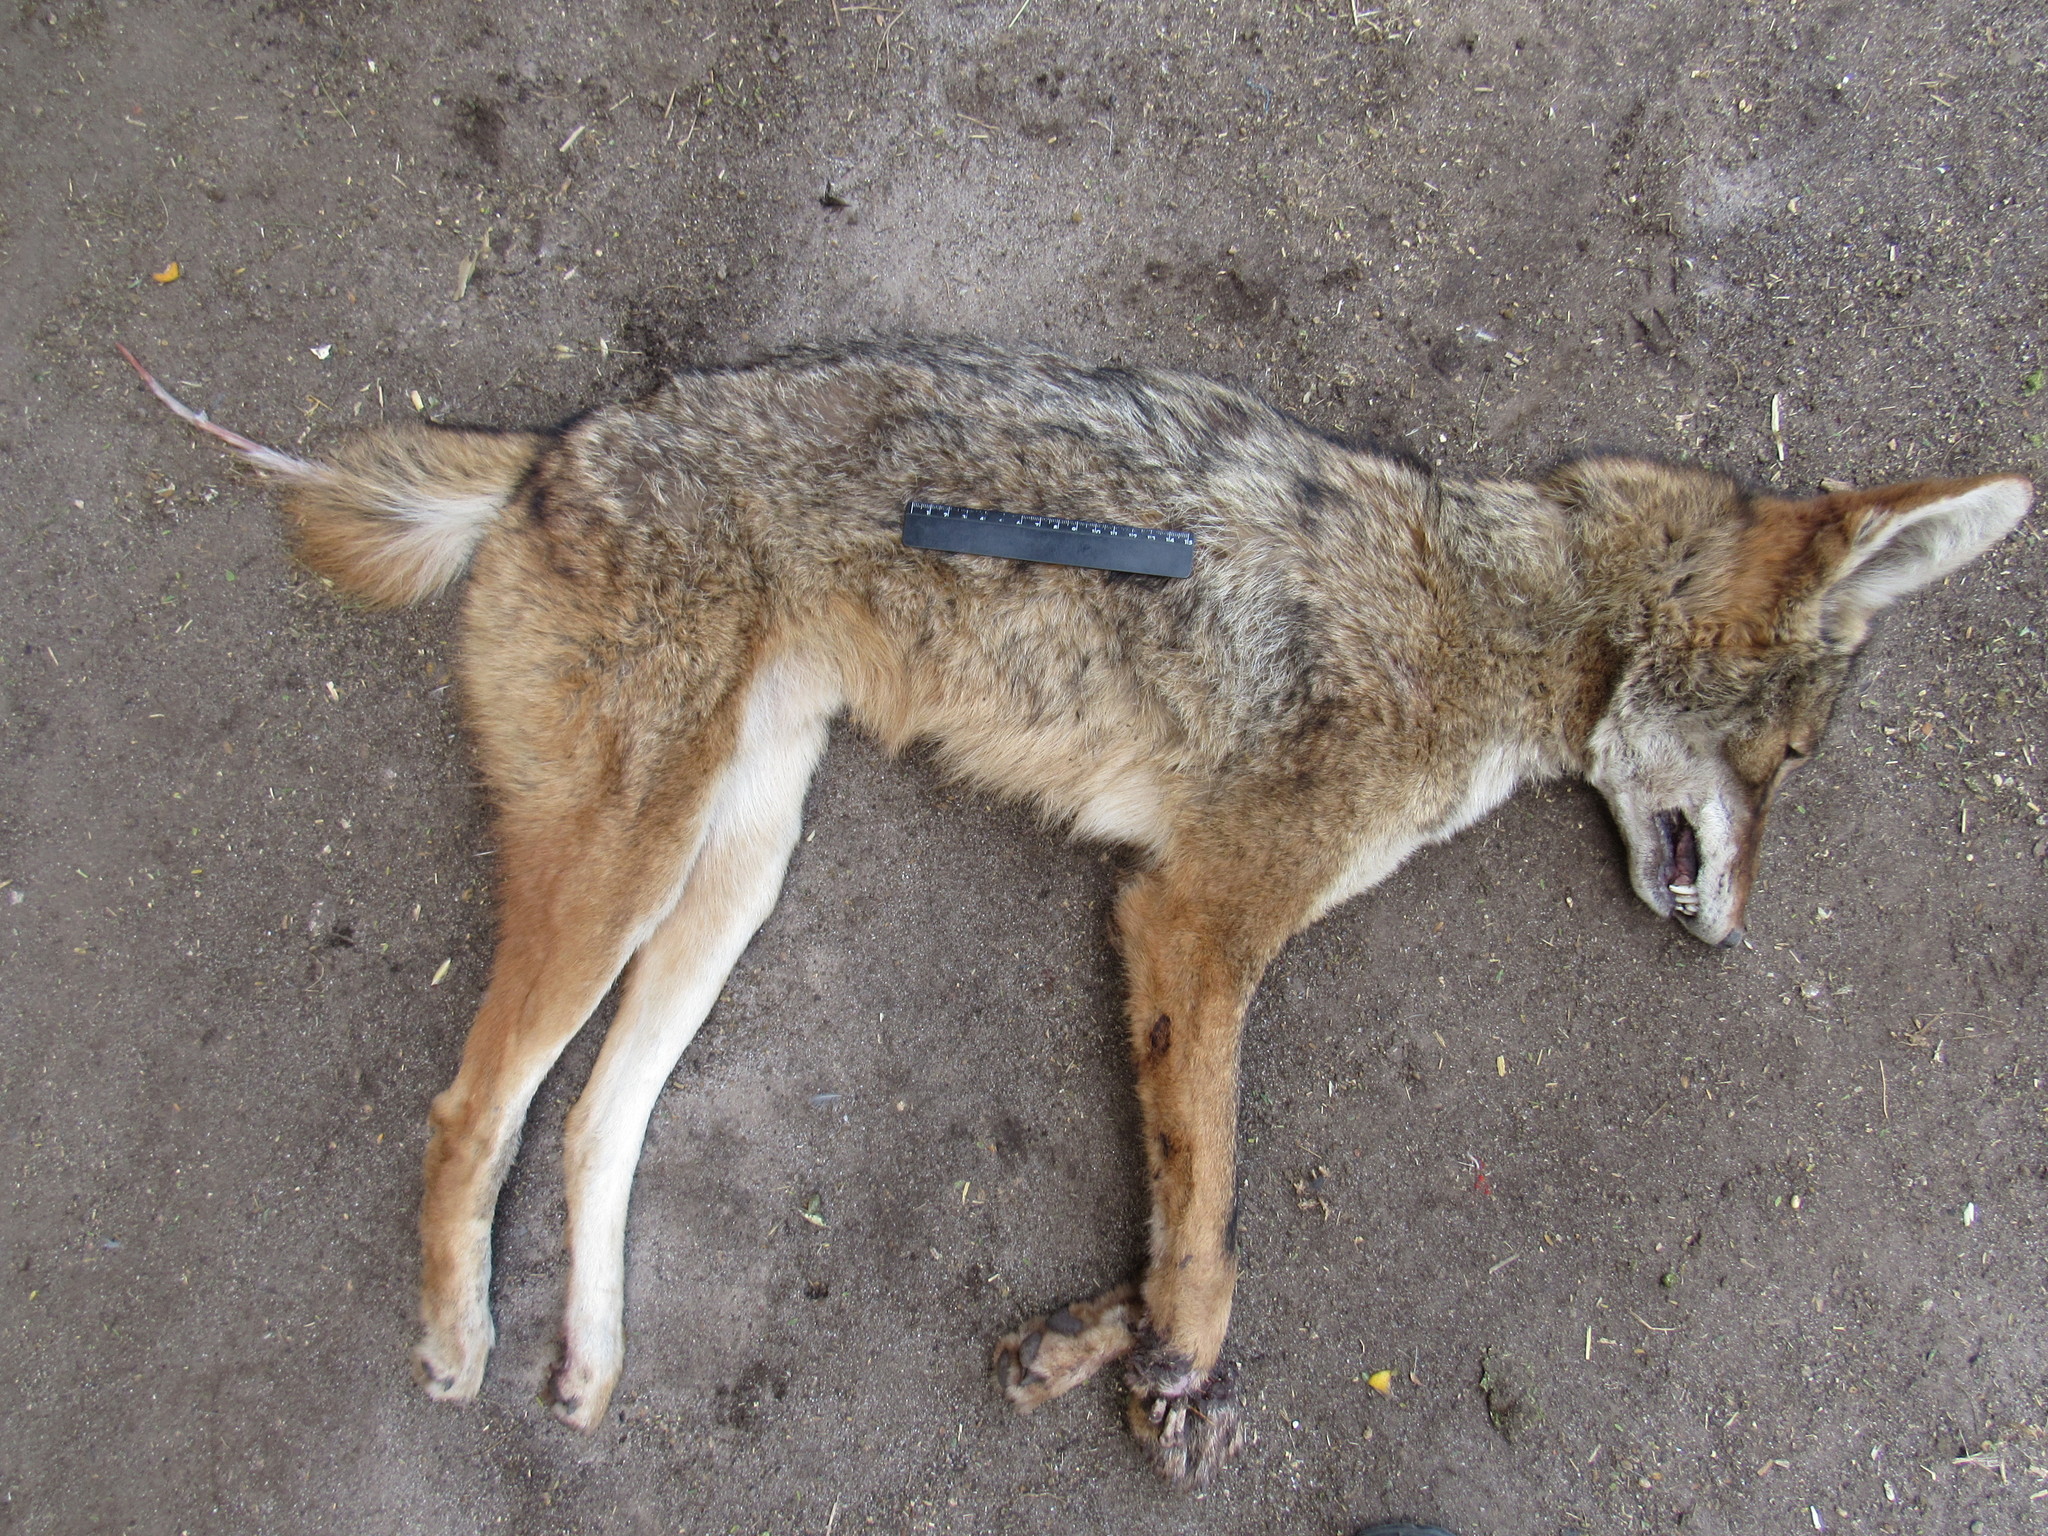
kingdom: Animalia
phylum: Chordata
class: Mammalia
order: Carnivora
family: Canidae
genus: Canis
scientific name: Canis latrans
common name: Coyote
